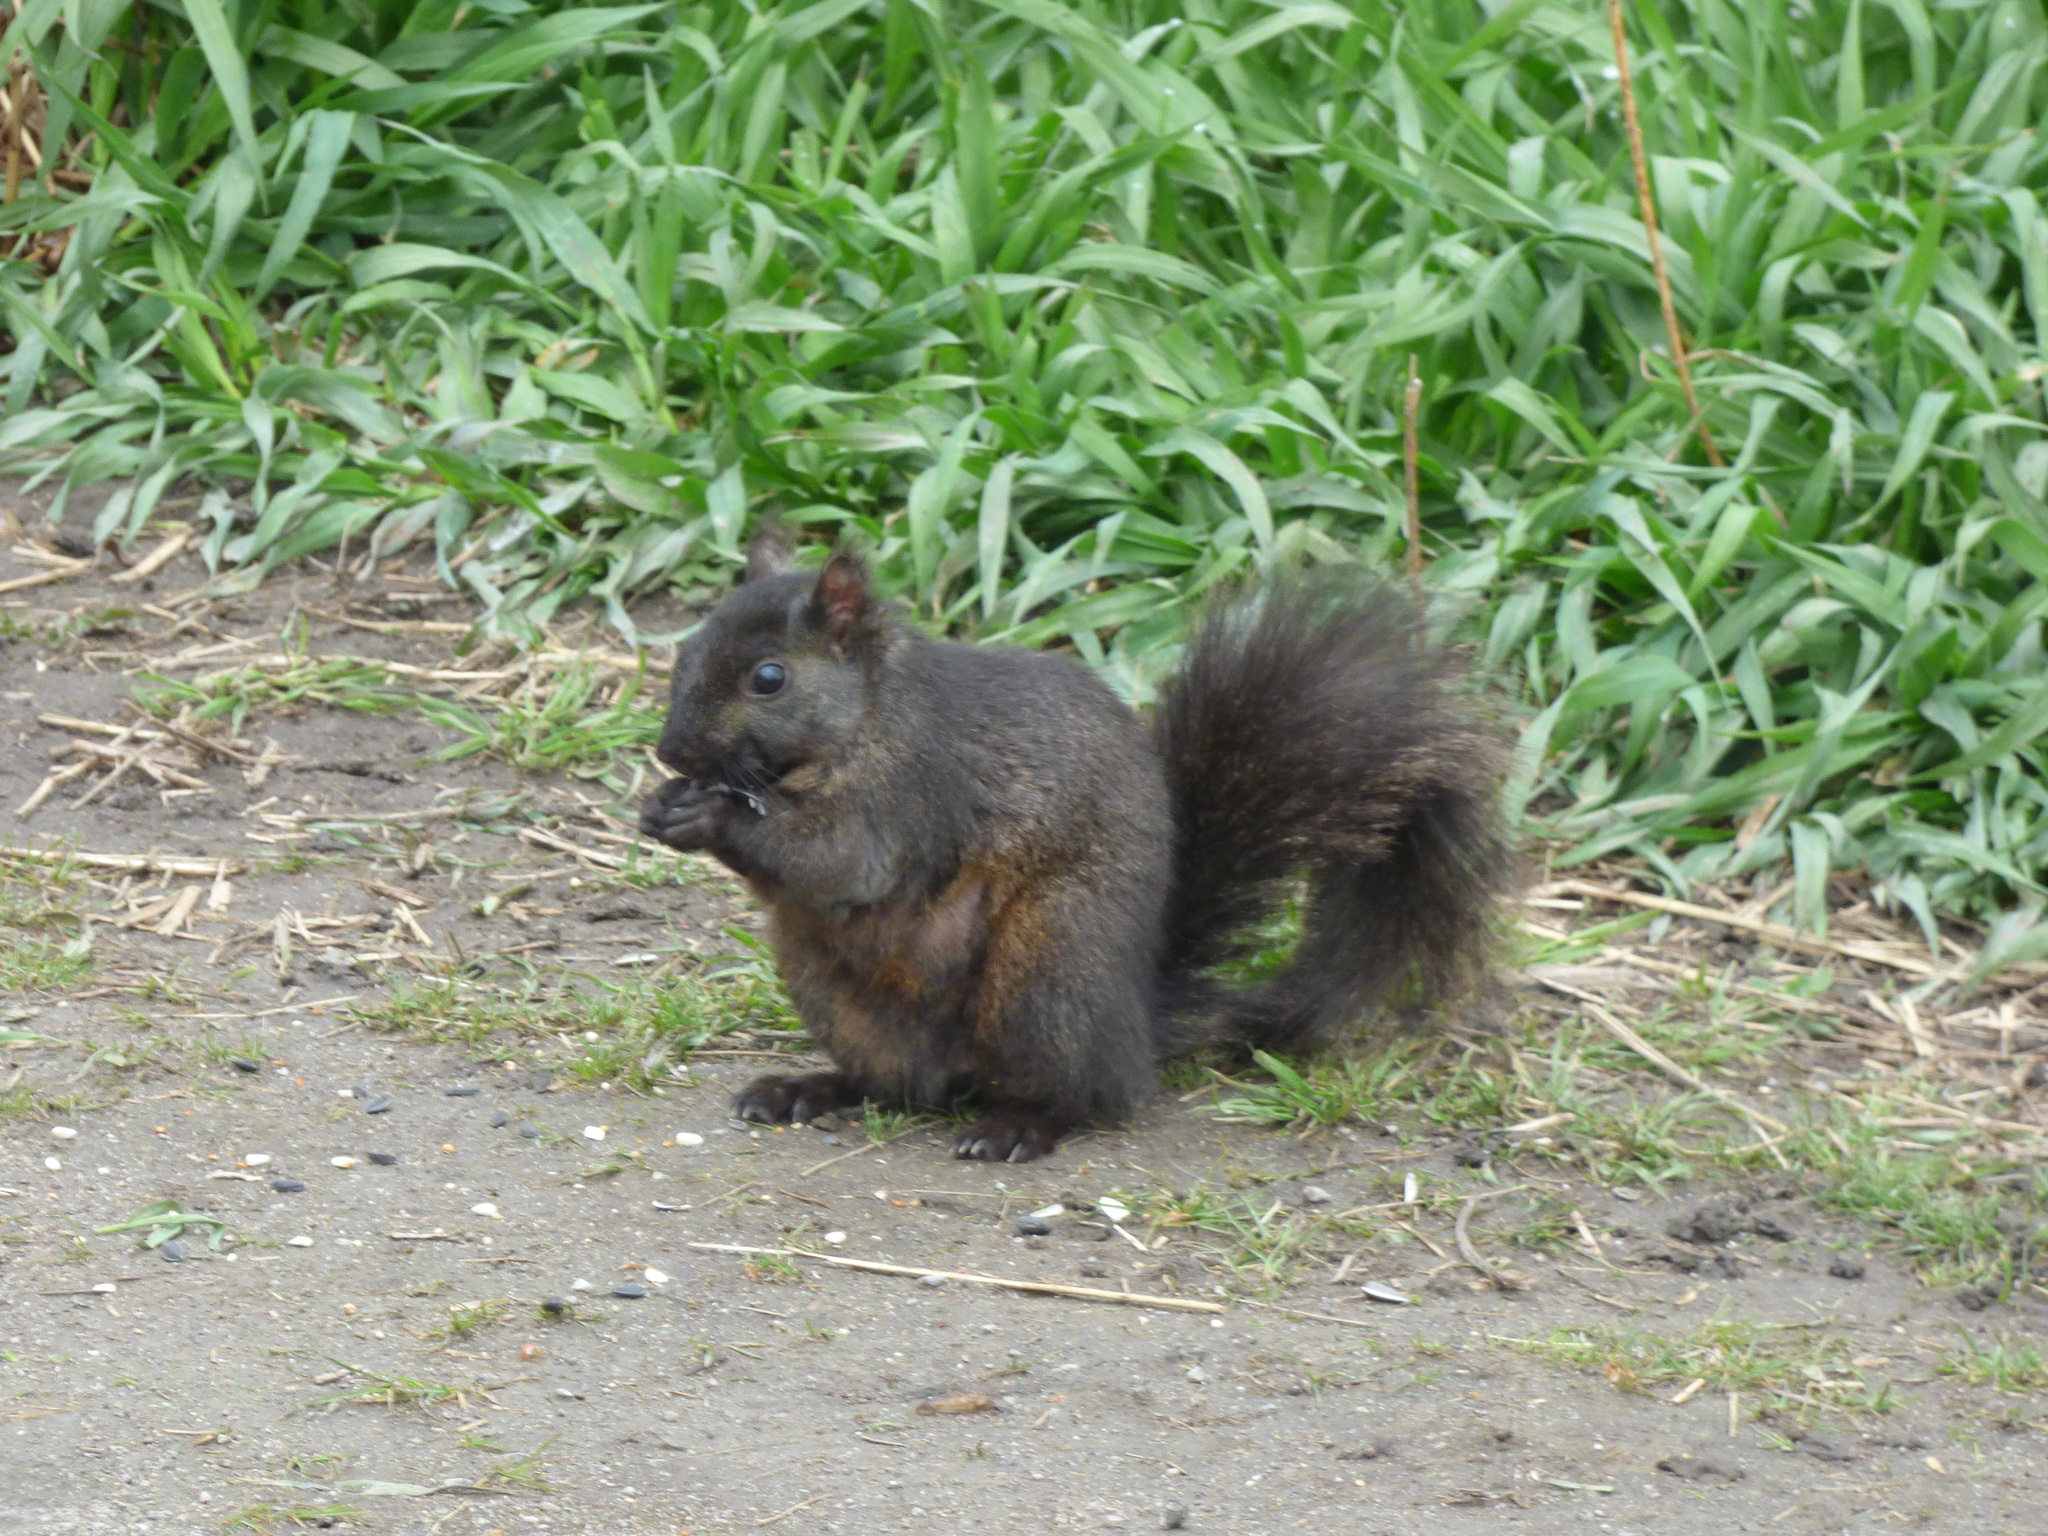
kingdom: Animalia
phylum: Chordata
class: Mammalia
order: Rodentia
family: Sciuridae
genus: Sciurus
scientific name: Sciurus carolinensis
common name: Eastern gray squirrel
